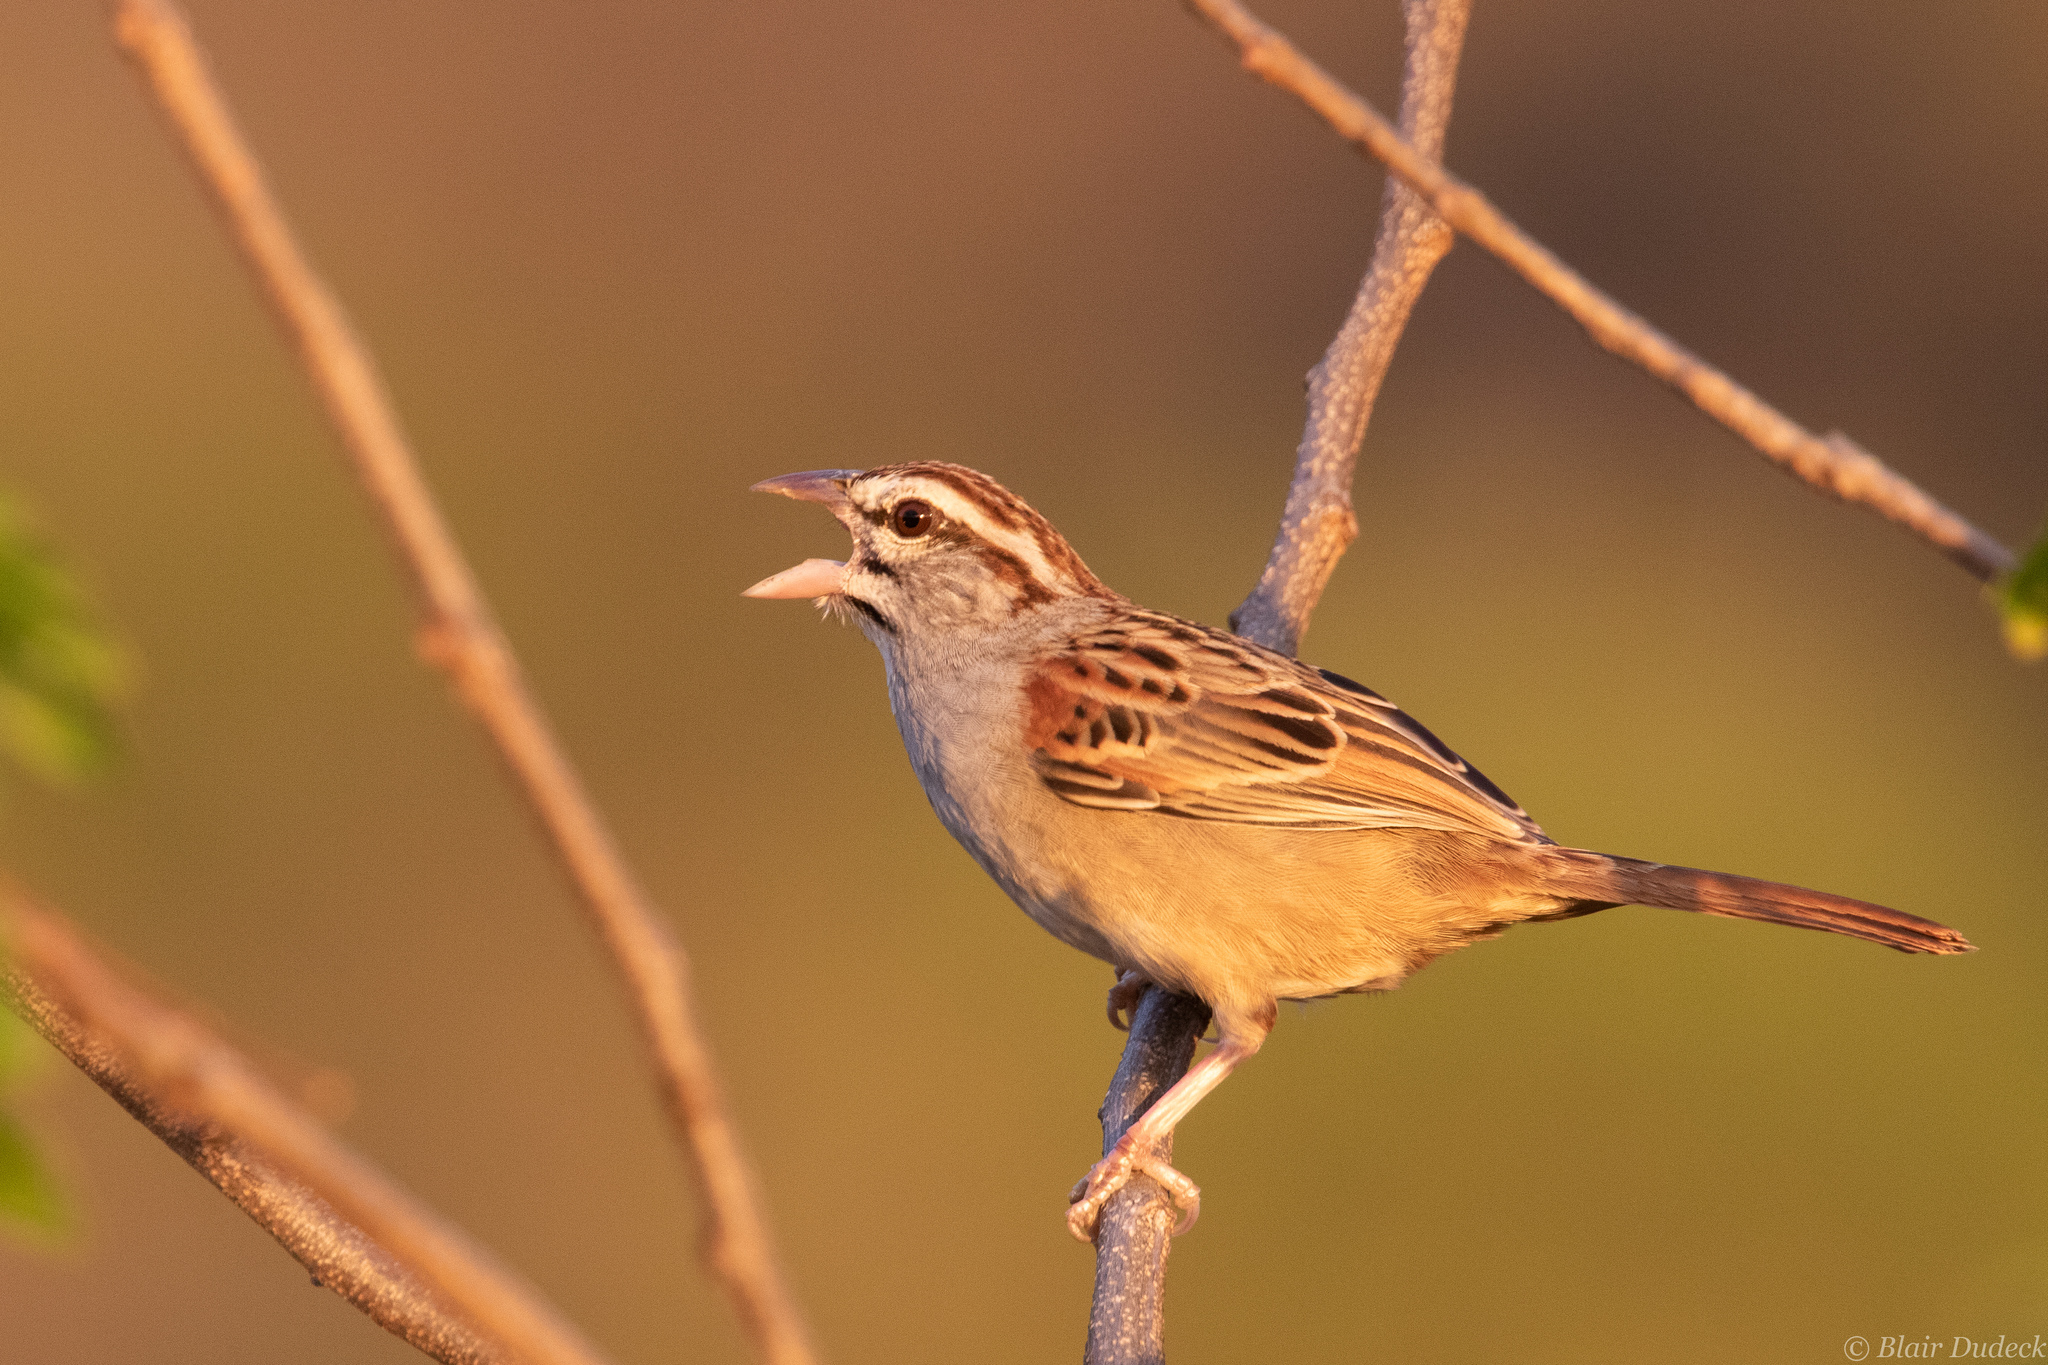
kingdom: Animalia
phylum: Chordata
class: Aves
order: Passeriformes
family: Passerellidae
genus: Peucaea
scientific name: Peucaea sumichrasti
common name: Cinnamon-tailed sparrow
